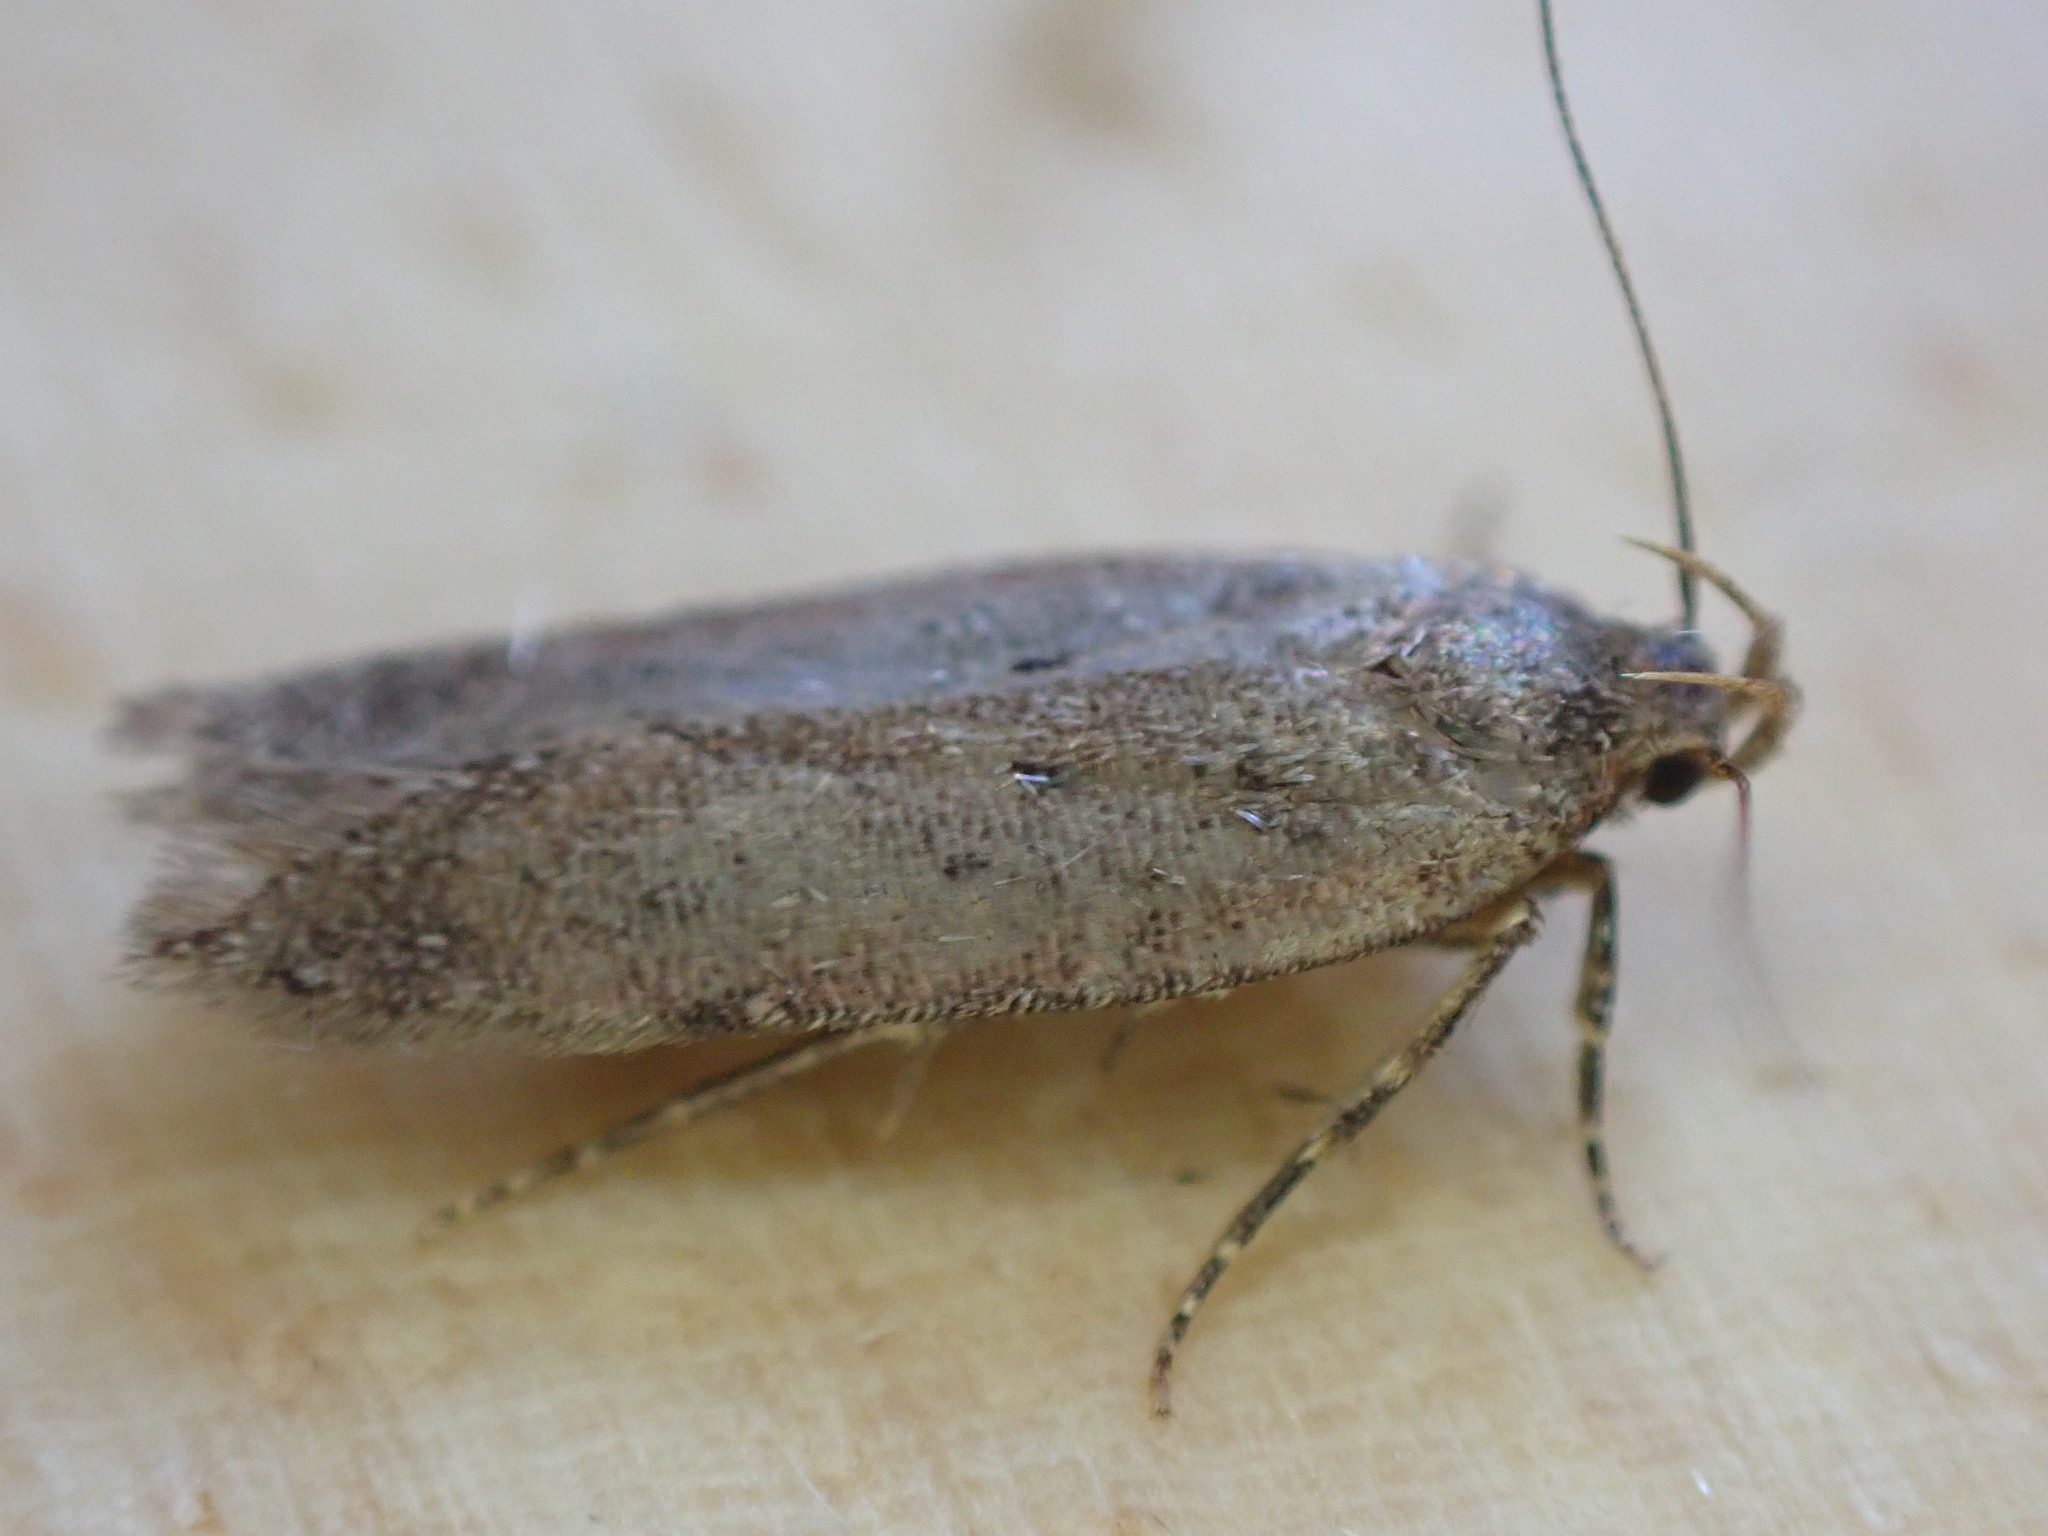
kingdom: Animalia
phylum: Arthropoda
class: Insecta
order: Lepidoptera
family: Gelechiidae
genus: Bryotropha
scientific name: Bryotropha terrella
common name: Cinerous groundling
